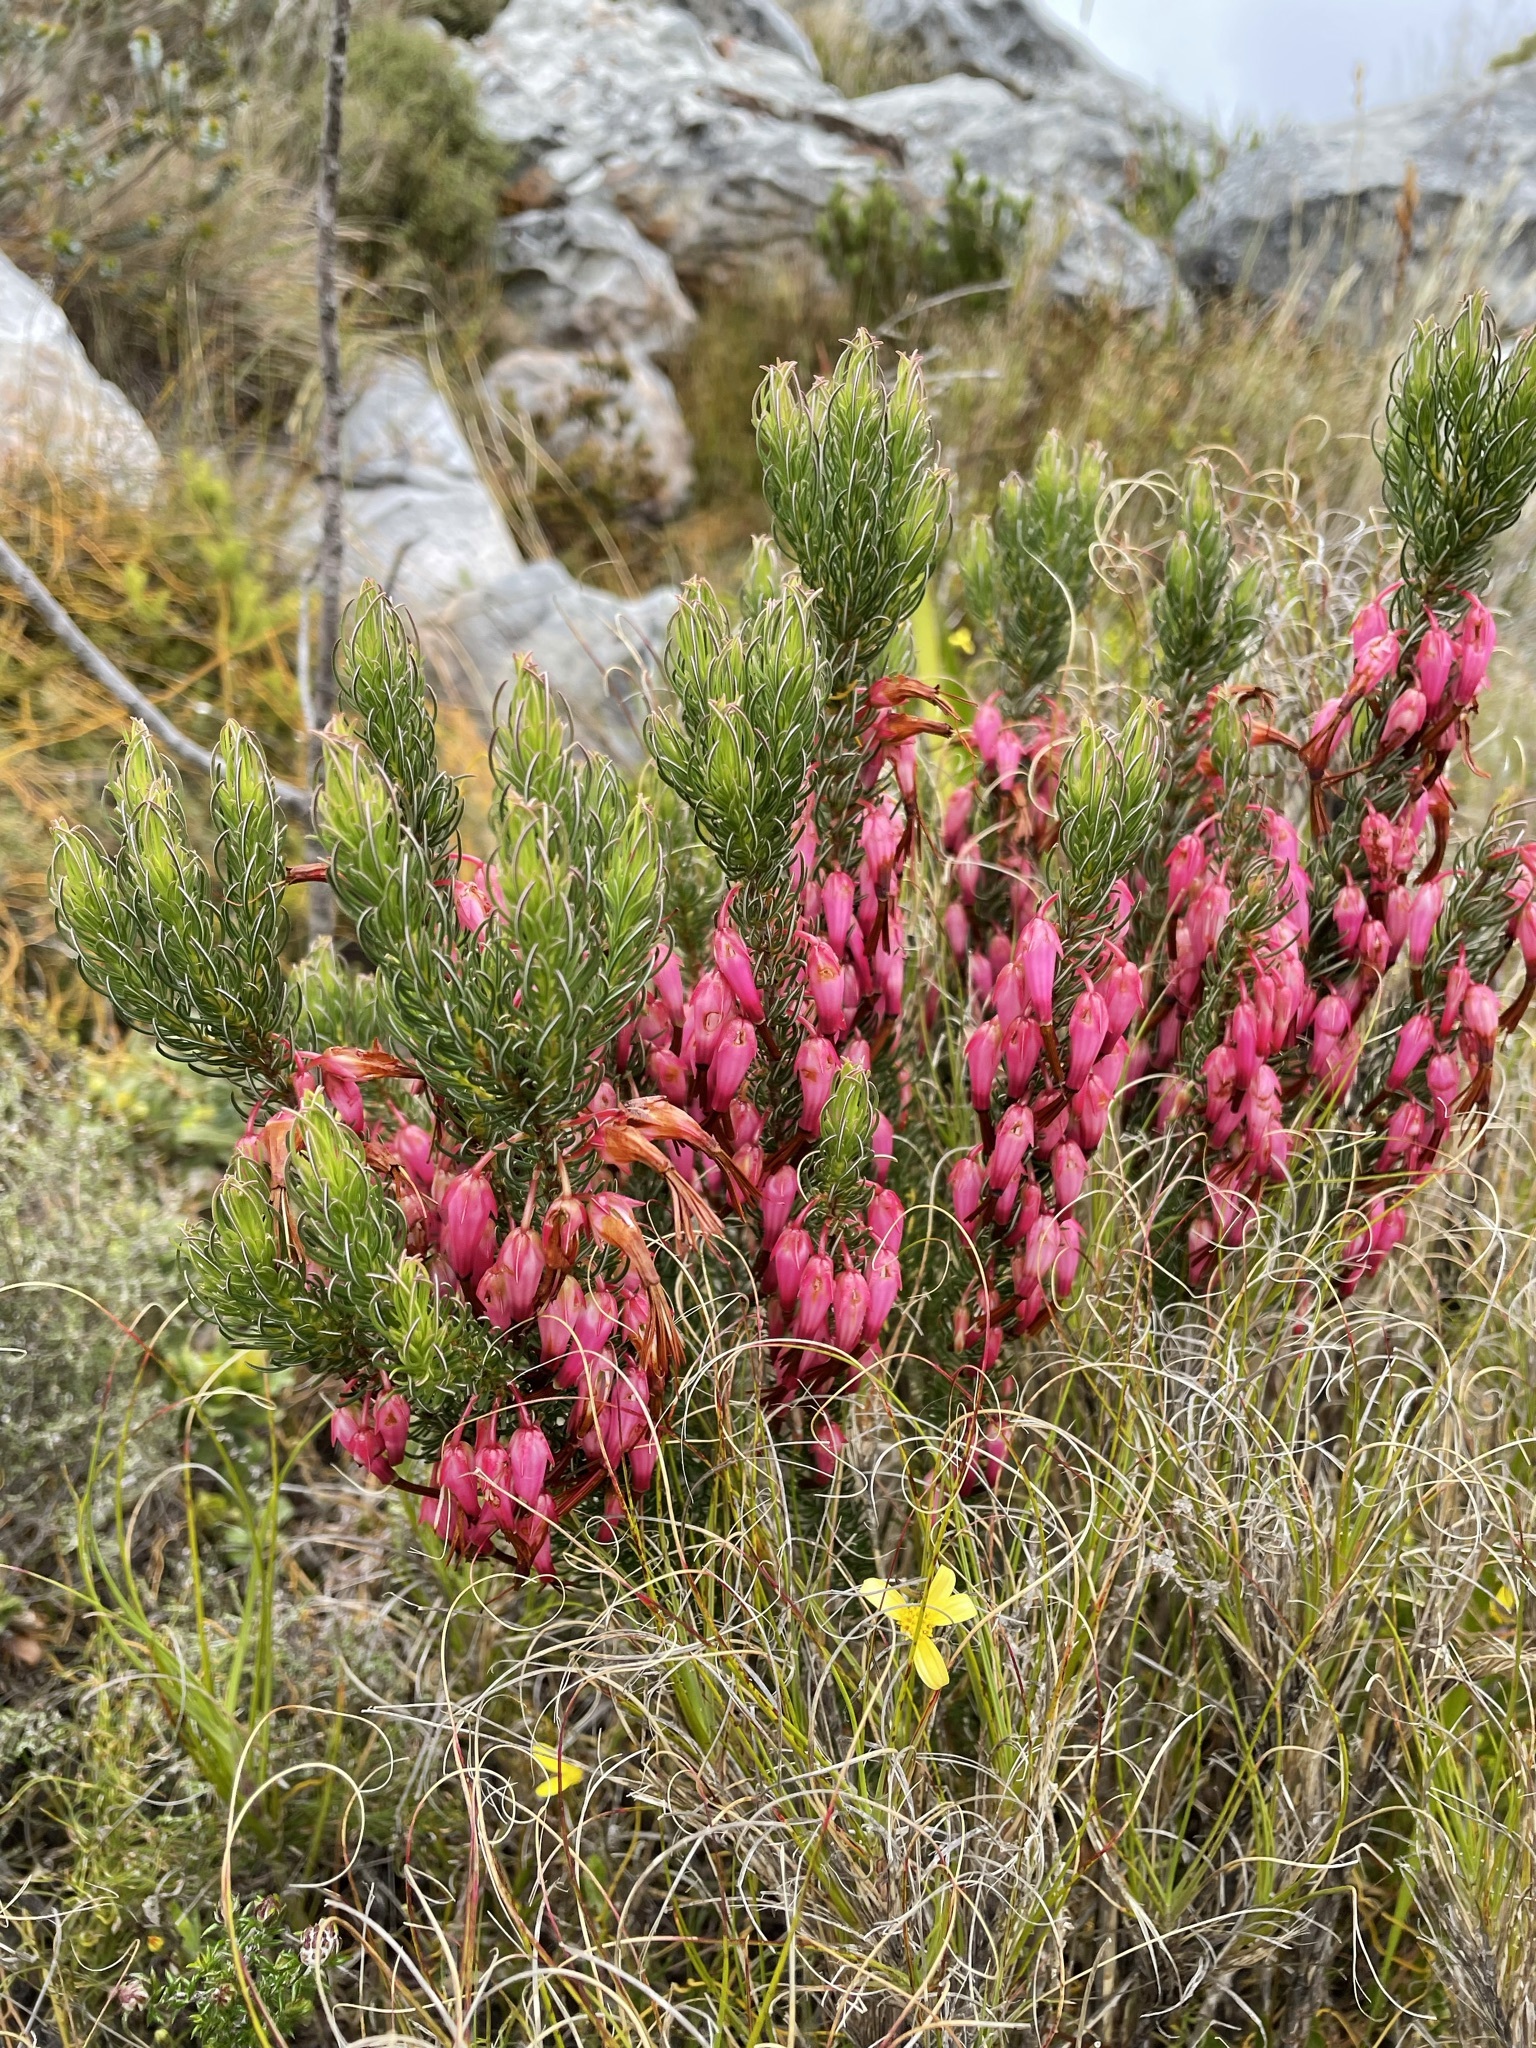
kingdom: Plantae
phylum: Tracheophyta
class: Magnoliopsida
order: Ericales
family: Ericaceae
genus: Erica
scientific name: Erica plukenetii
